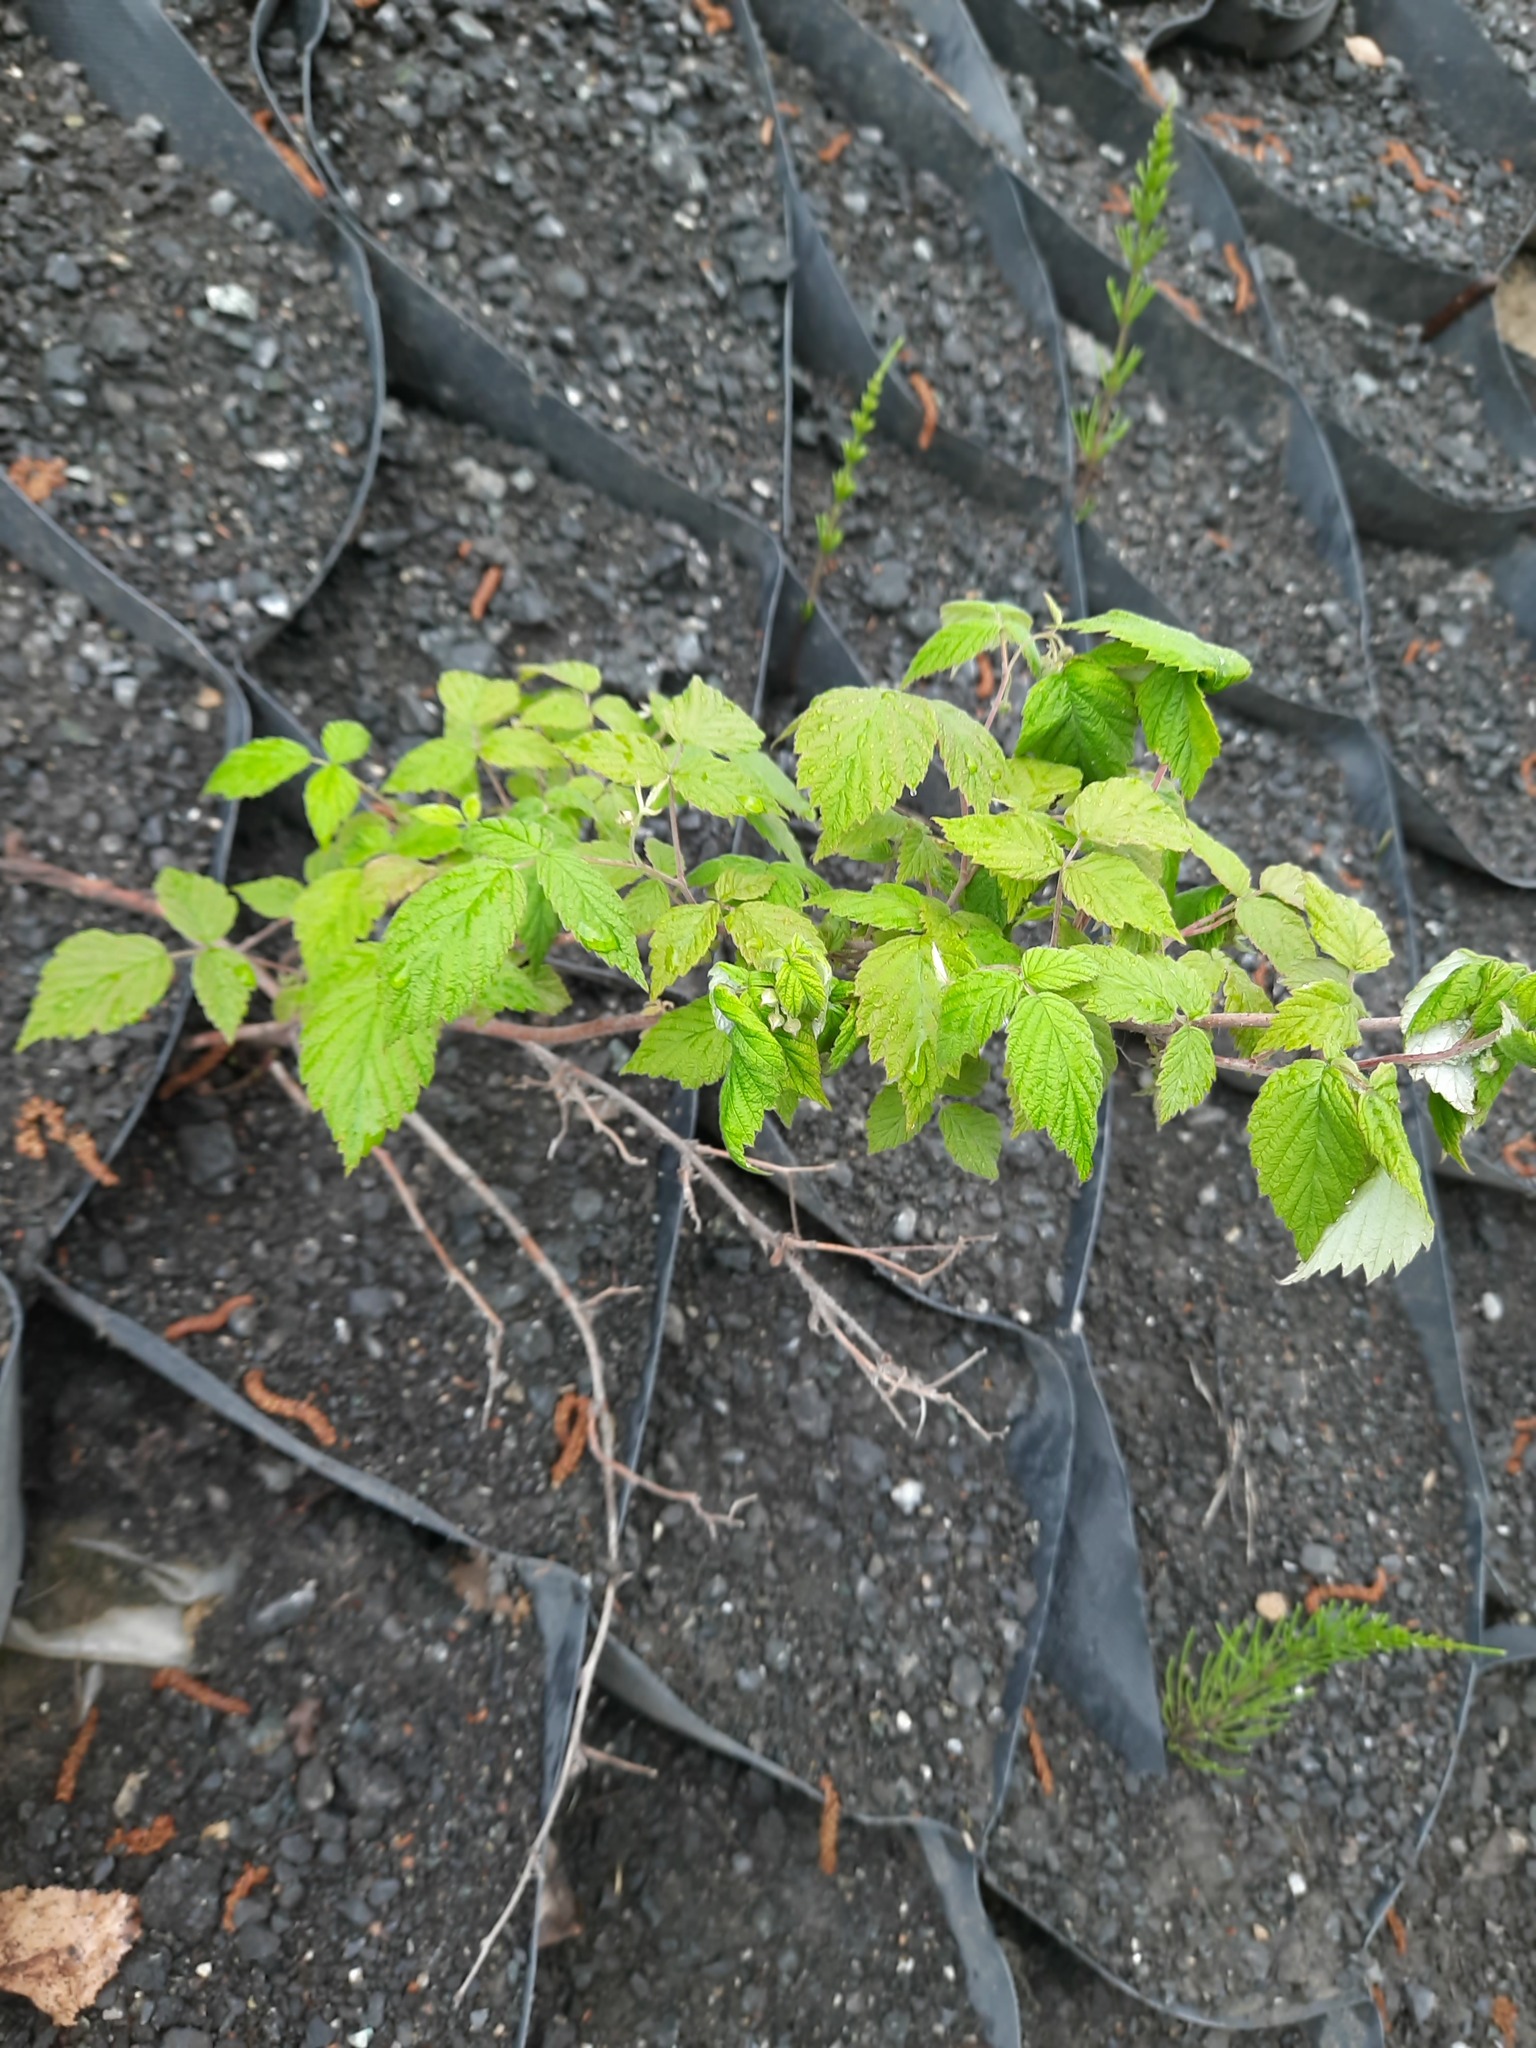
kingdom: Plantae
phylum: Tracheophyta
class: Magnoliopsida
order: Rosales
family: Rosaceae
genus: Rubus
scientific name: Rubus sachalinensis
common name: Red raspberry
